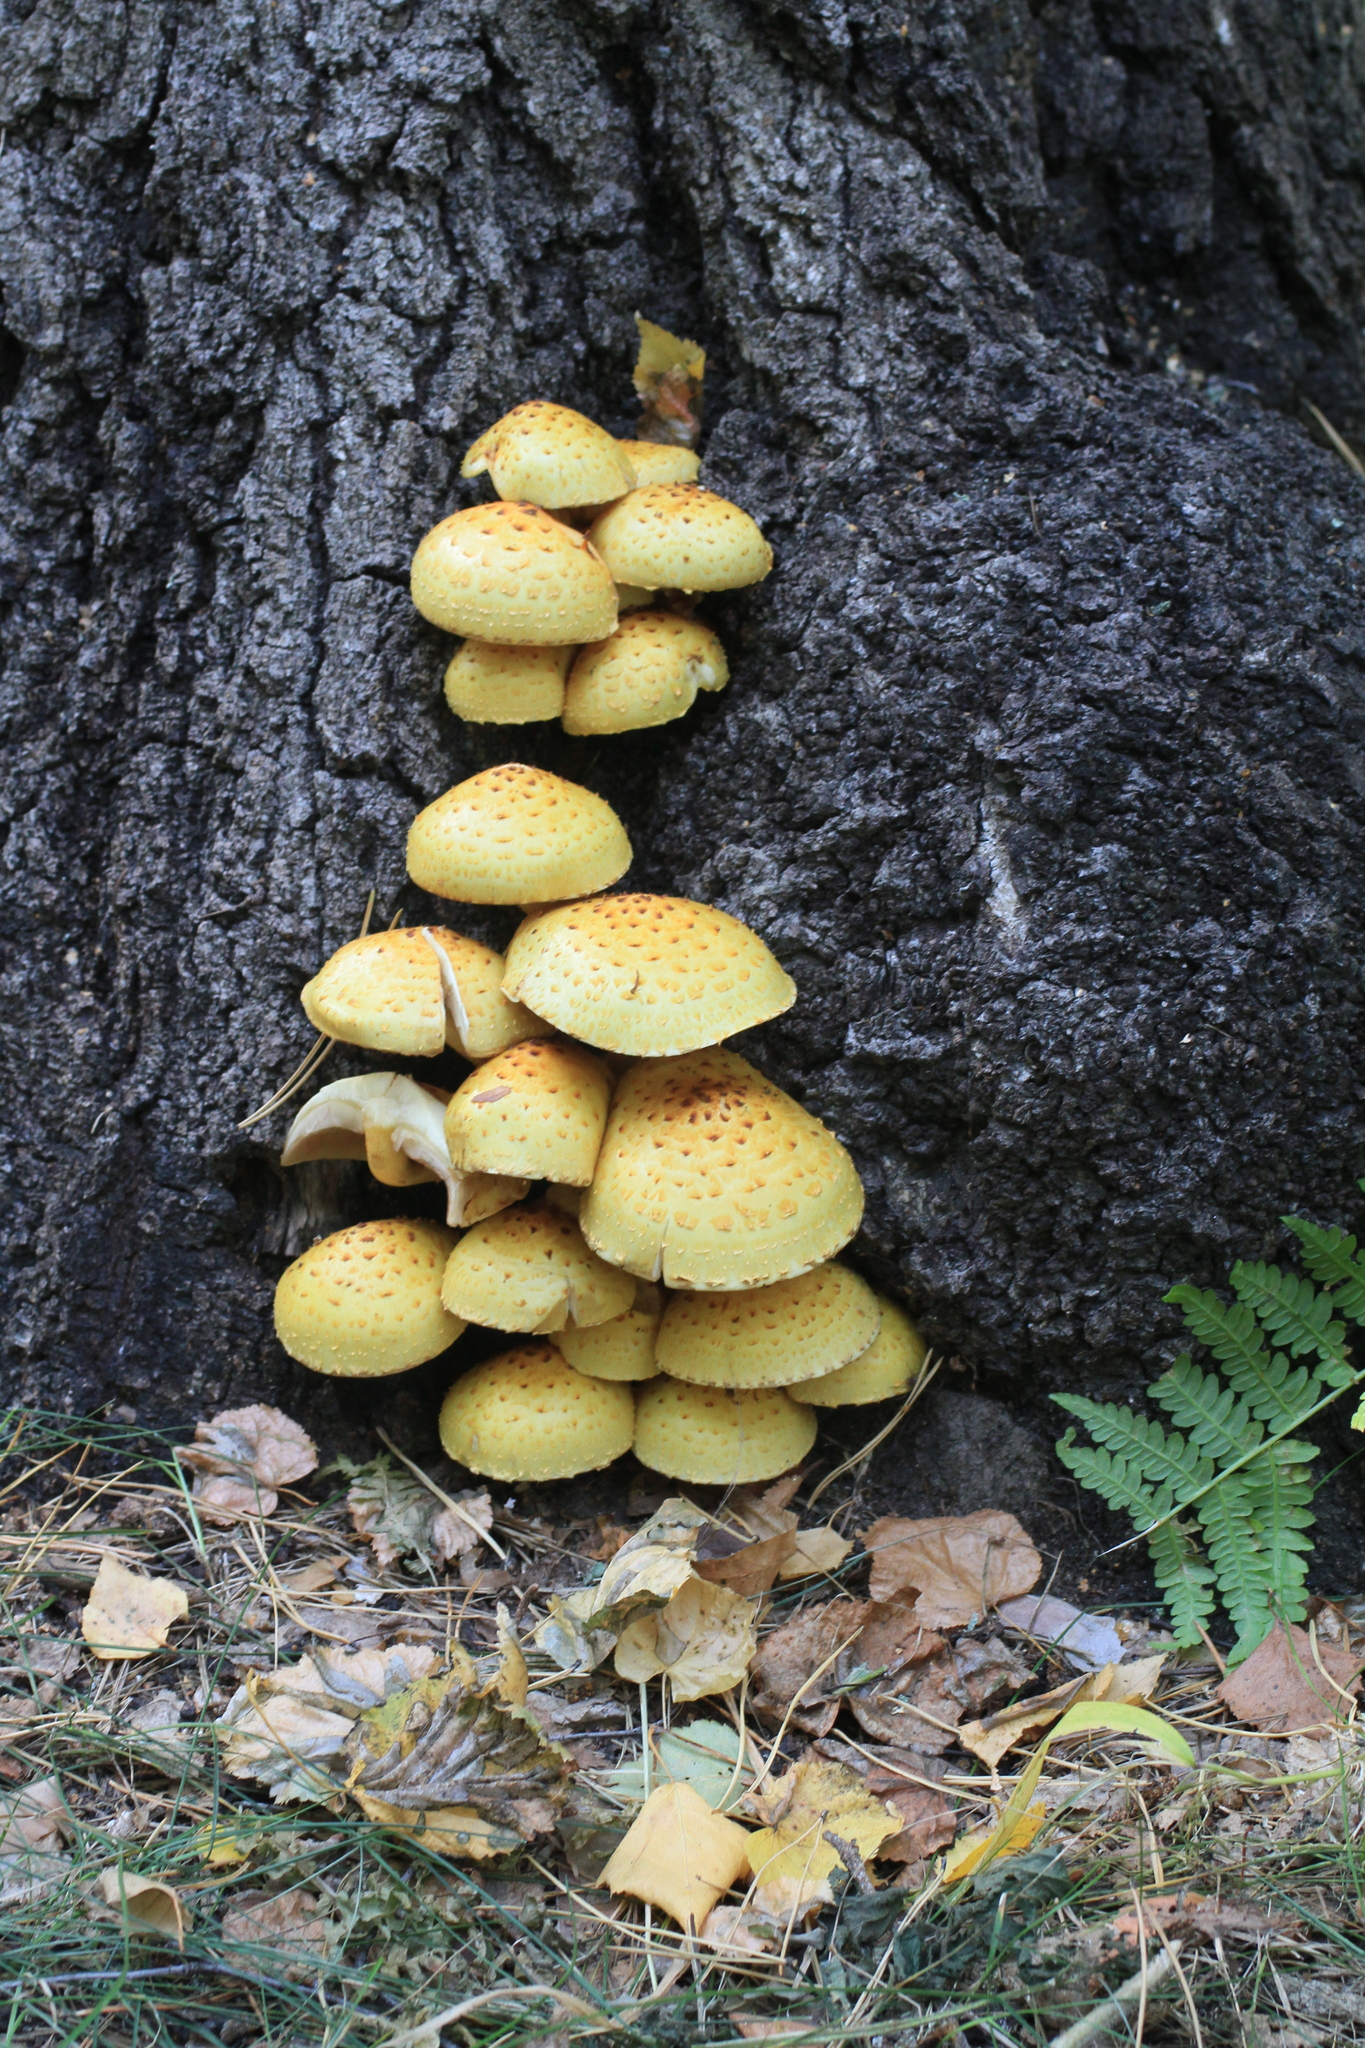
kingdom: Fungi
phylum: Basidiomycota
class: Agaricomycetes
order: Agaricales
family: Strophariaceae
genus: Pholiota
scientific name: Pholiota aurivella
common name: Golden scalycap
